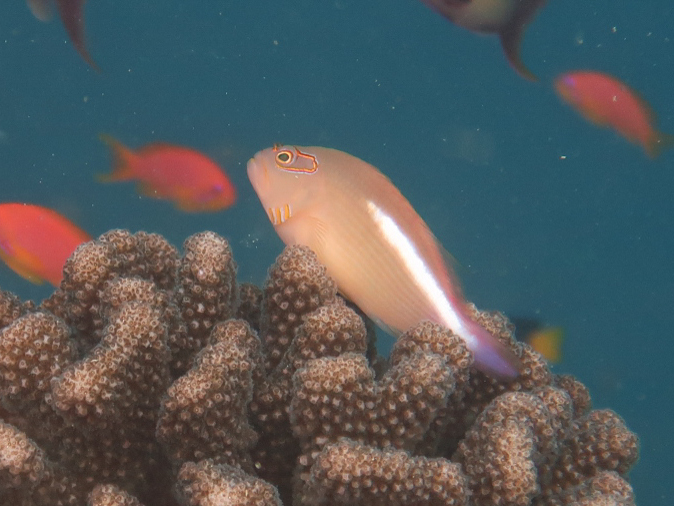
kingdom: Animalia
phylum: Chordata
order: Perciformes
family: Cirrhitidae
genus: Paracirrhites
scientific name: Paracirrhites arcatus
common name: Arc-eye hawkfish
